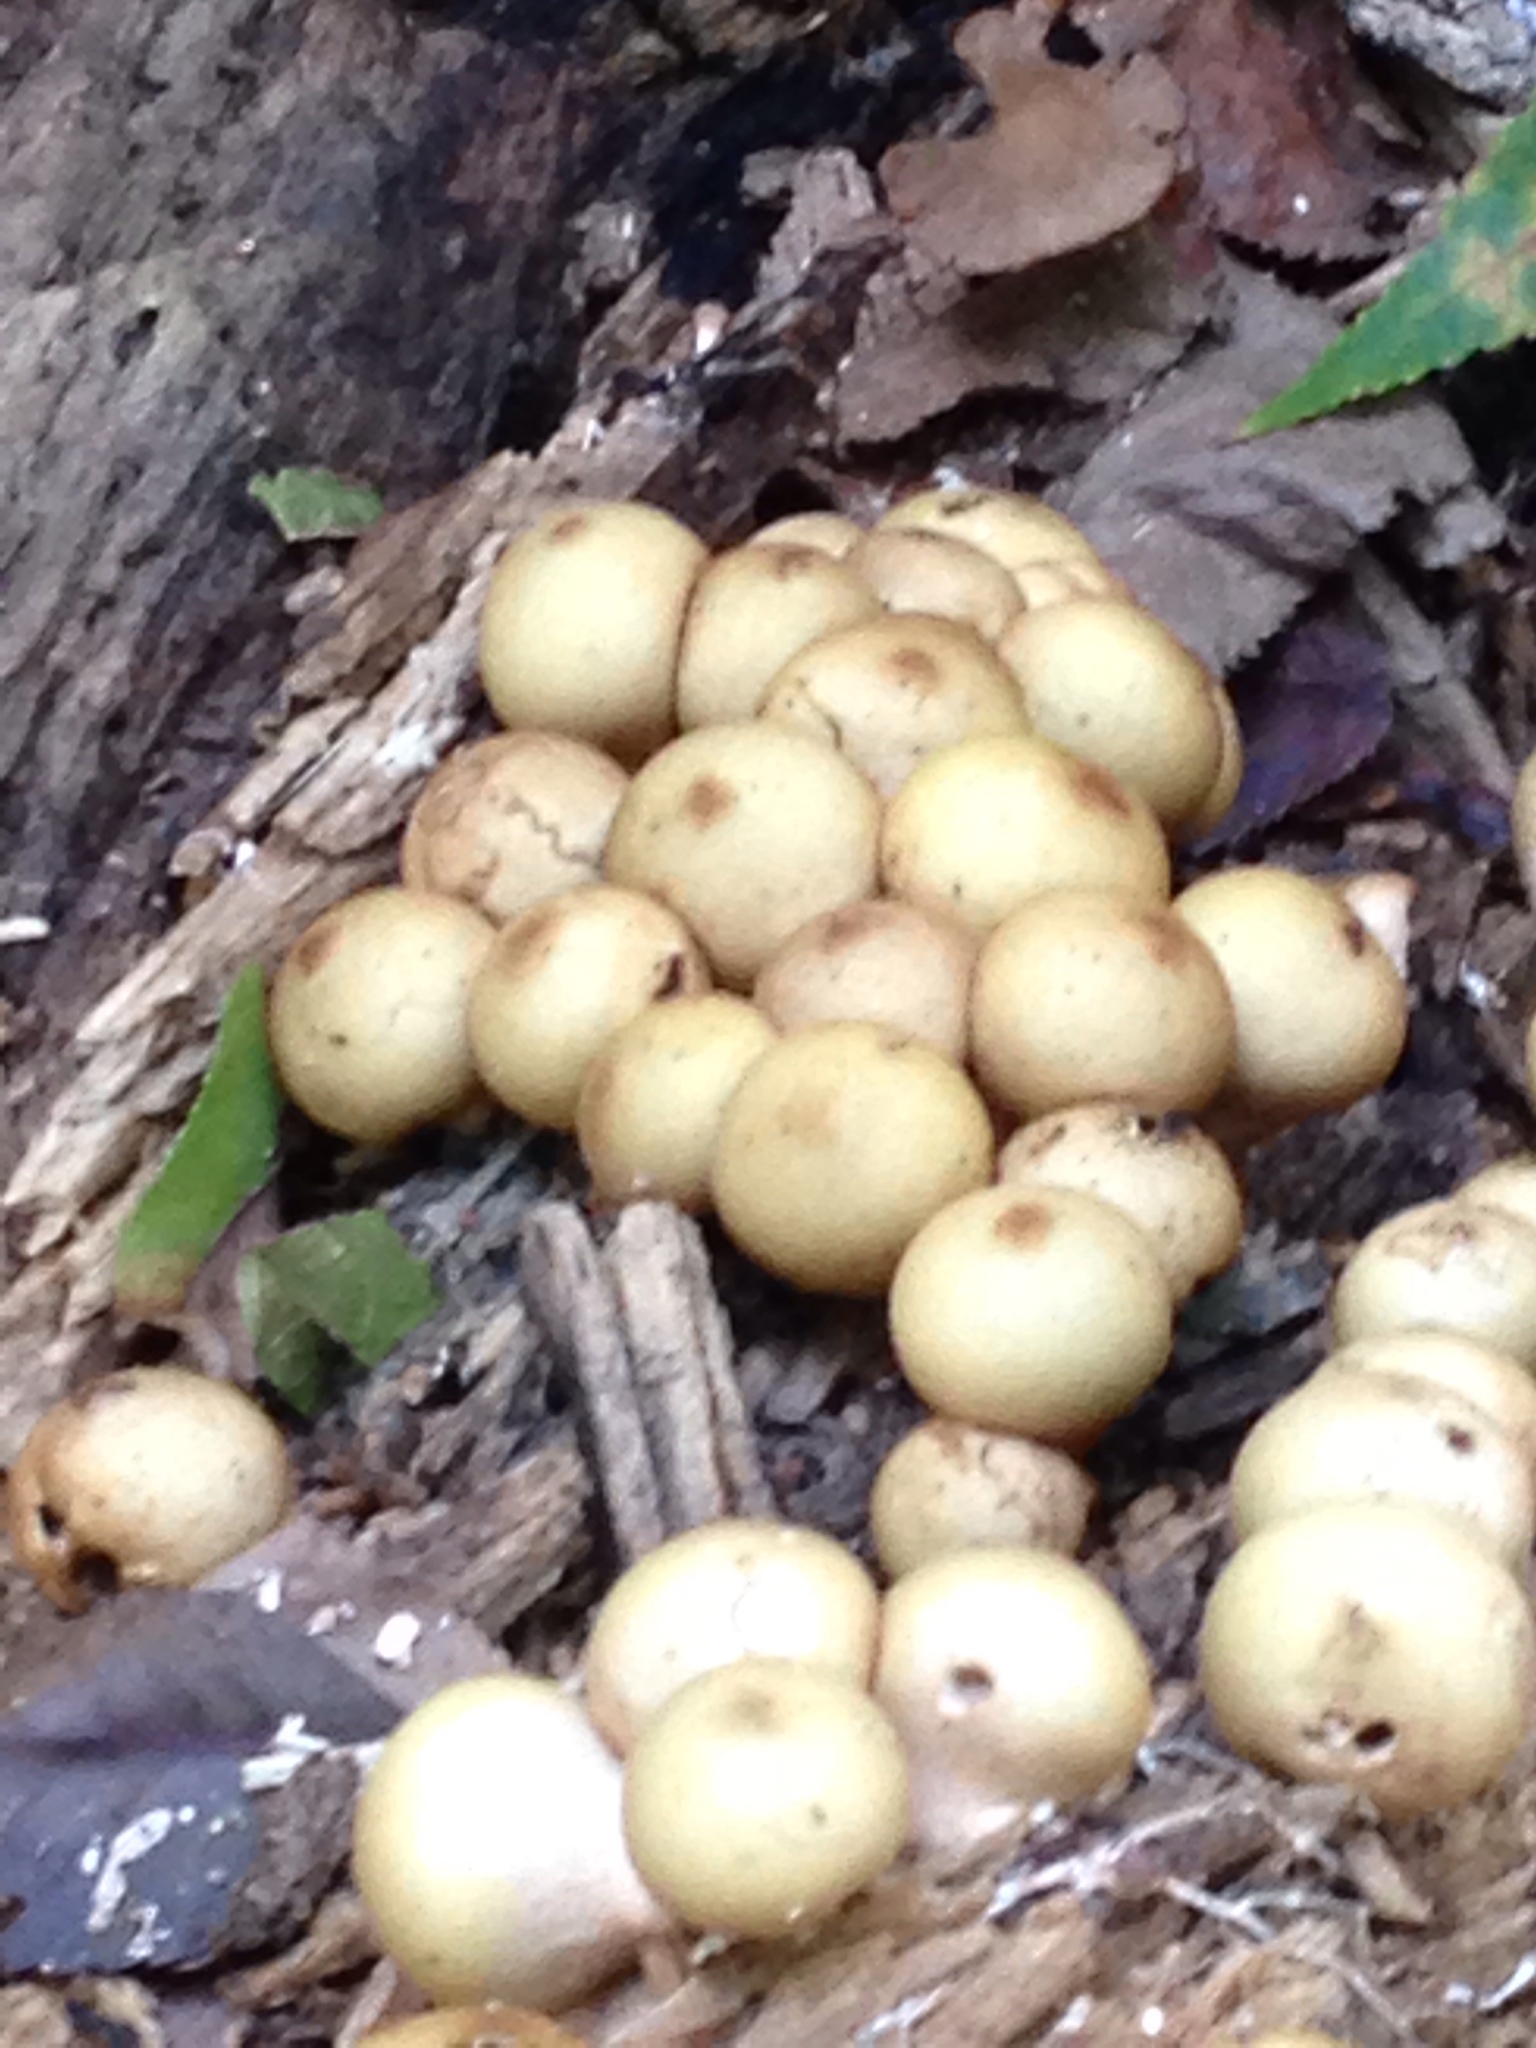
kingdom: Fungi
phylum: Basidiomycota
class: Agaricomycetes
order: Agaricales
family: Lycoperdaceae
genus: Apioperdon
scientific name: Apioperdon pyriforme
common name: Pear-shaped puffball
